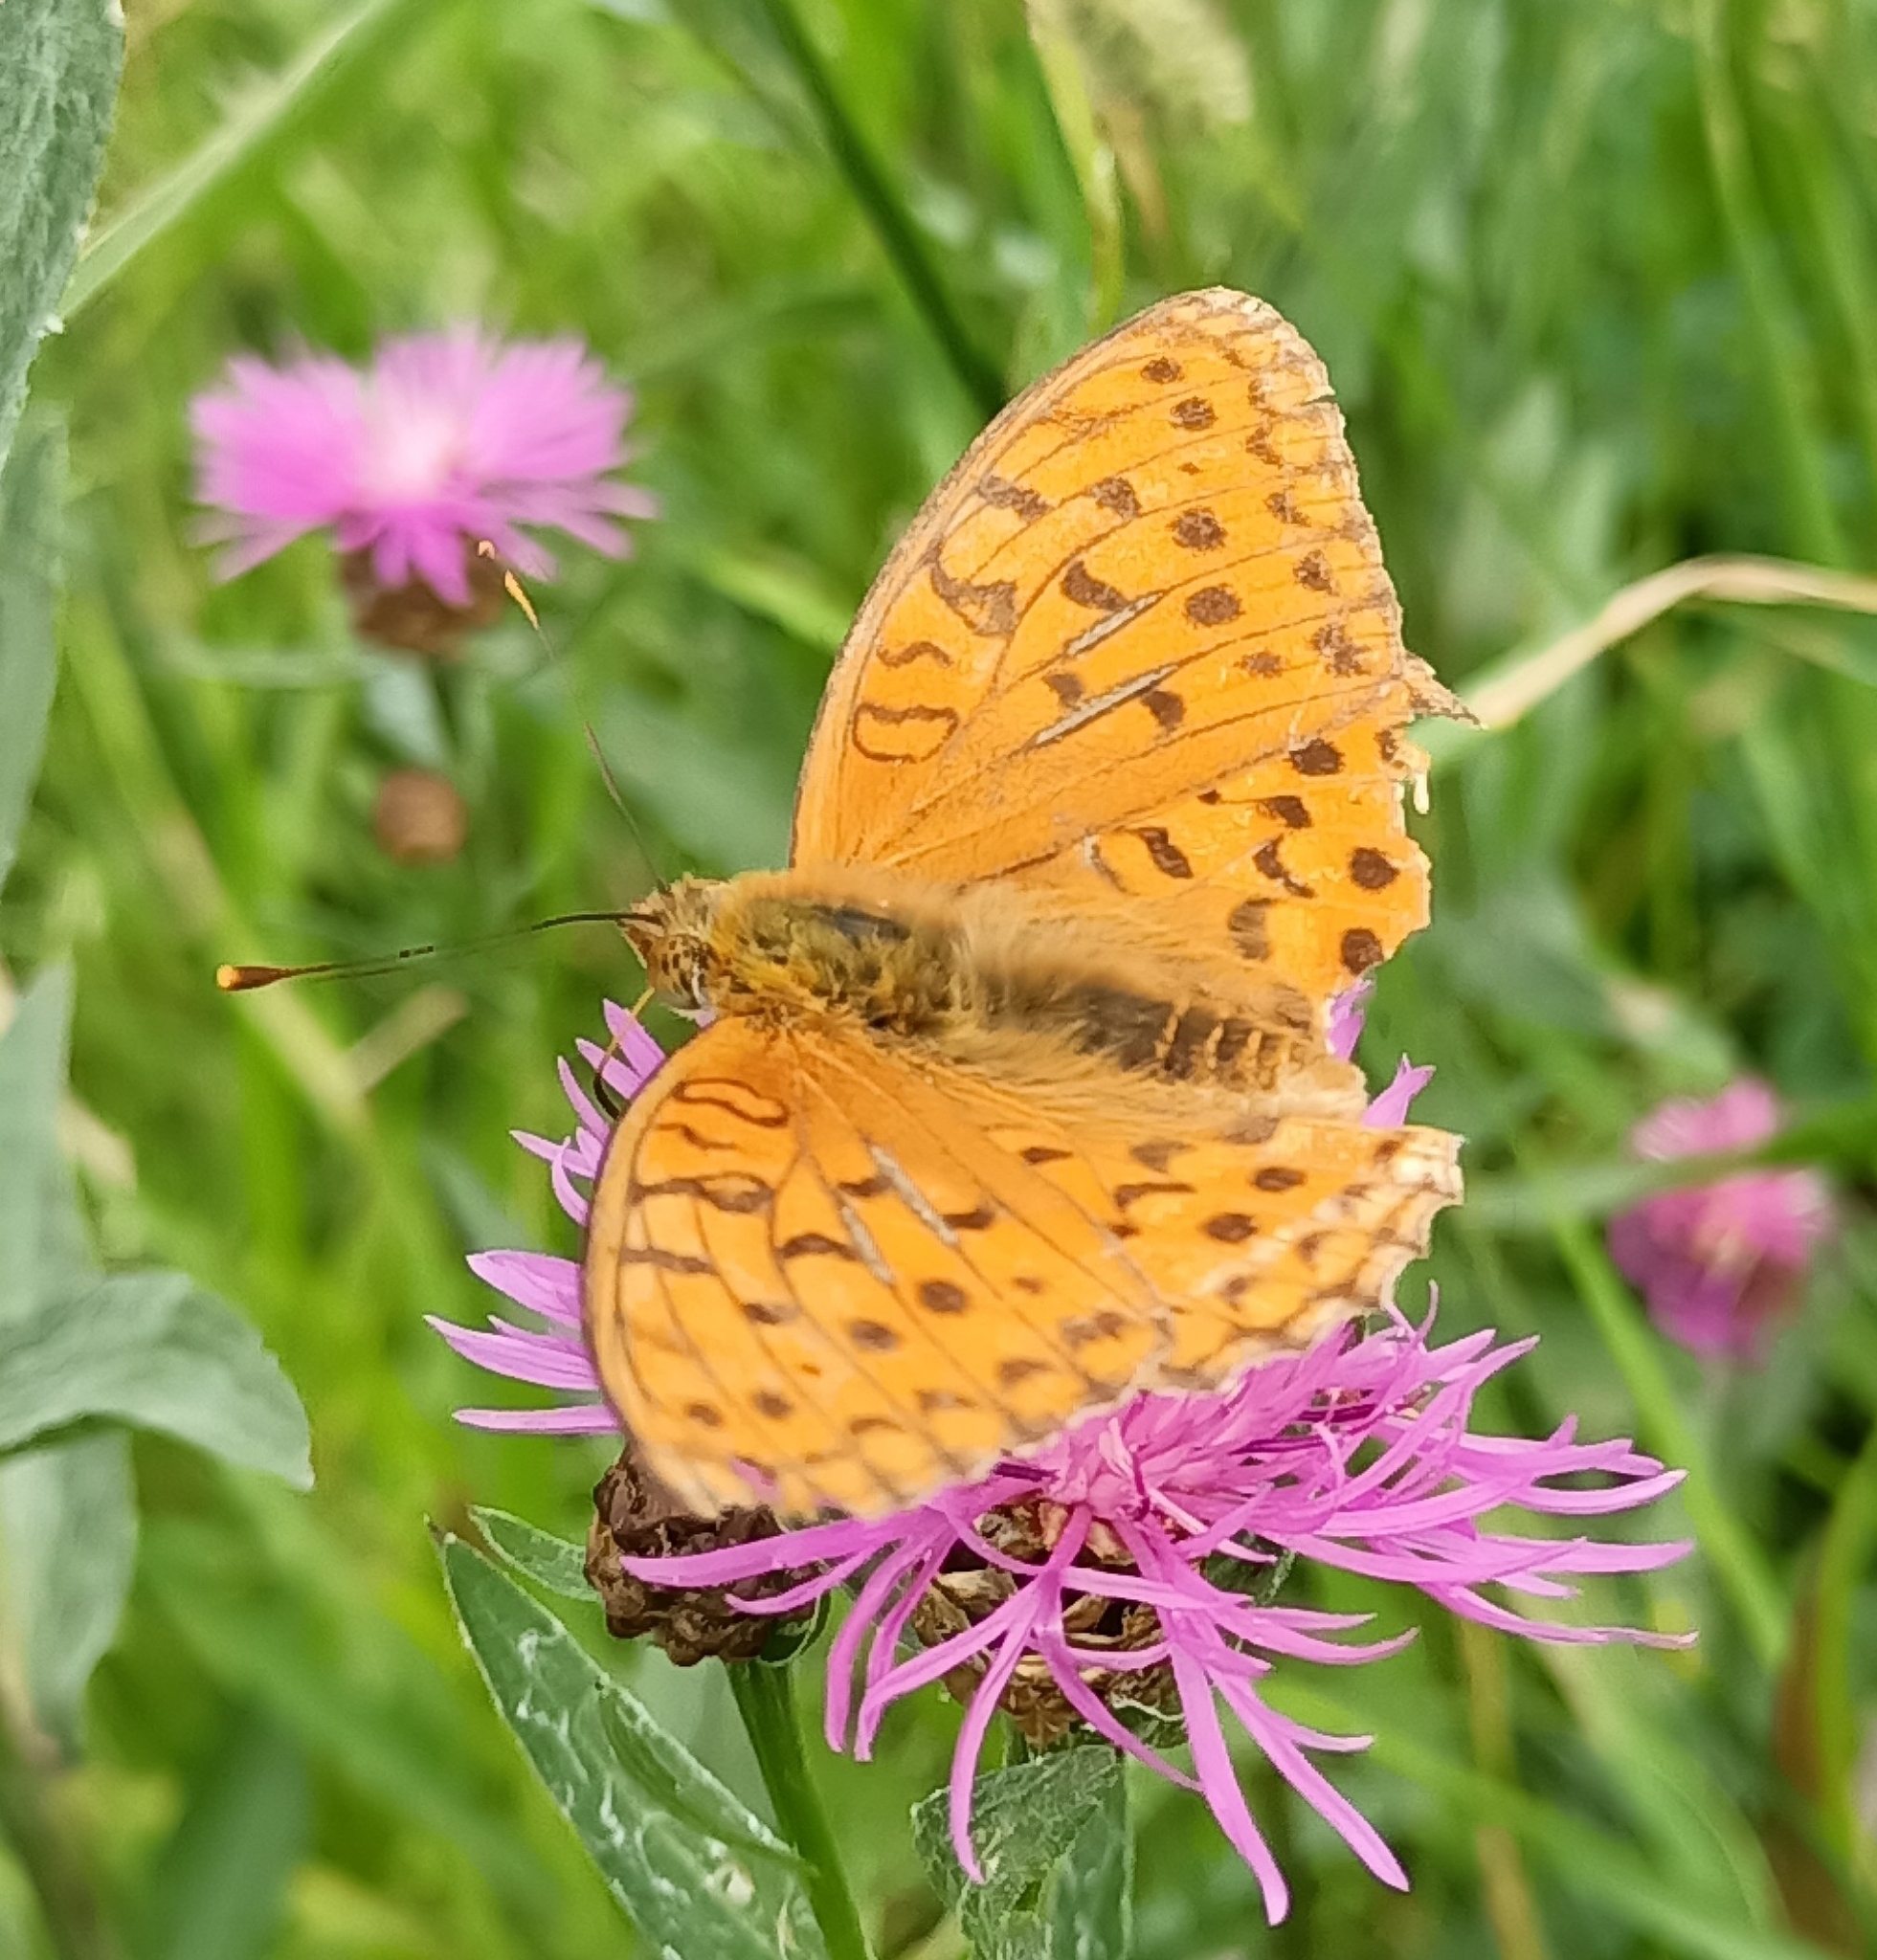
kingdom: Animalia
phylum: Arthropoda
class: Insecta
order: Lepidoptera
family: Nymphalidae
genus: Fabriciana
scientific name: Fabriciana adippe
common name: High brown fritillary
